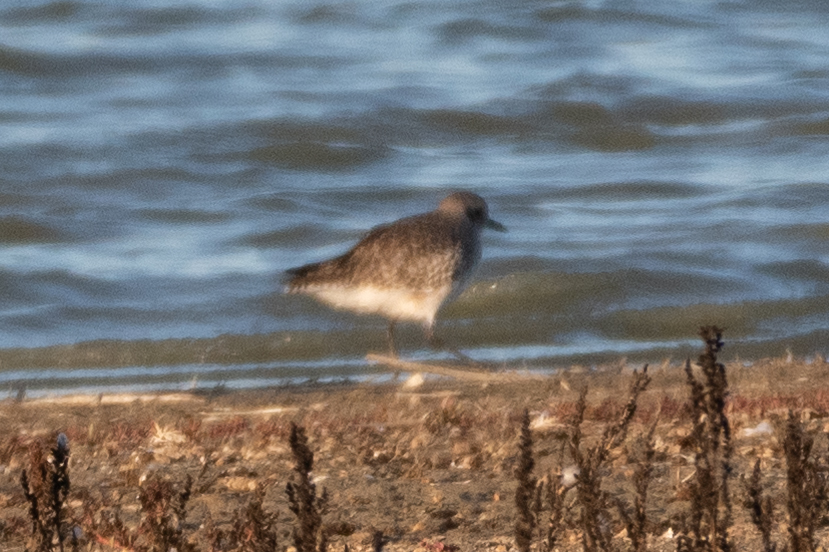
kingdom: Animalia
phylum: Chordata
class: Aves
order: Charadriiformes
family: Charadriidae
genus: Pluvialis
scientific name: Pluvialis squatarola
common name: Grey plover
